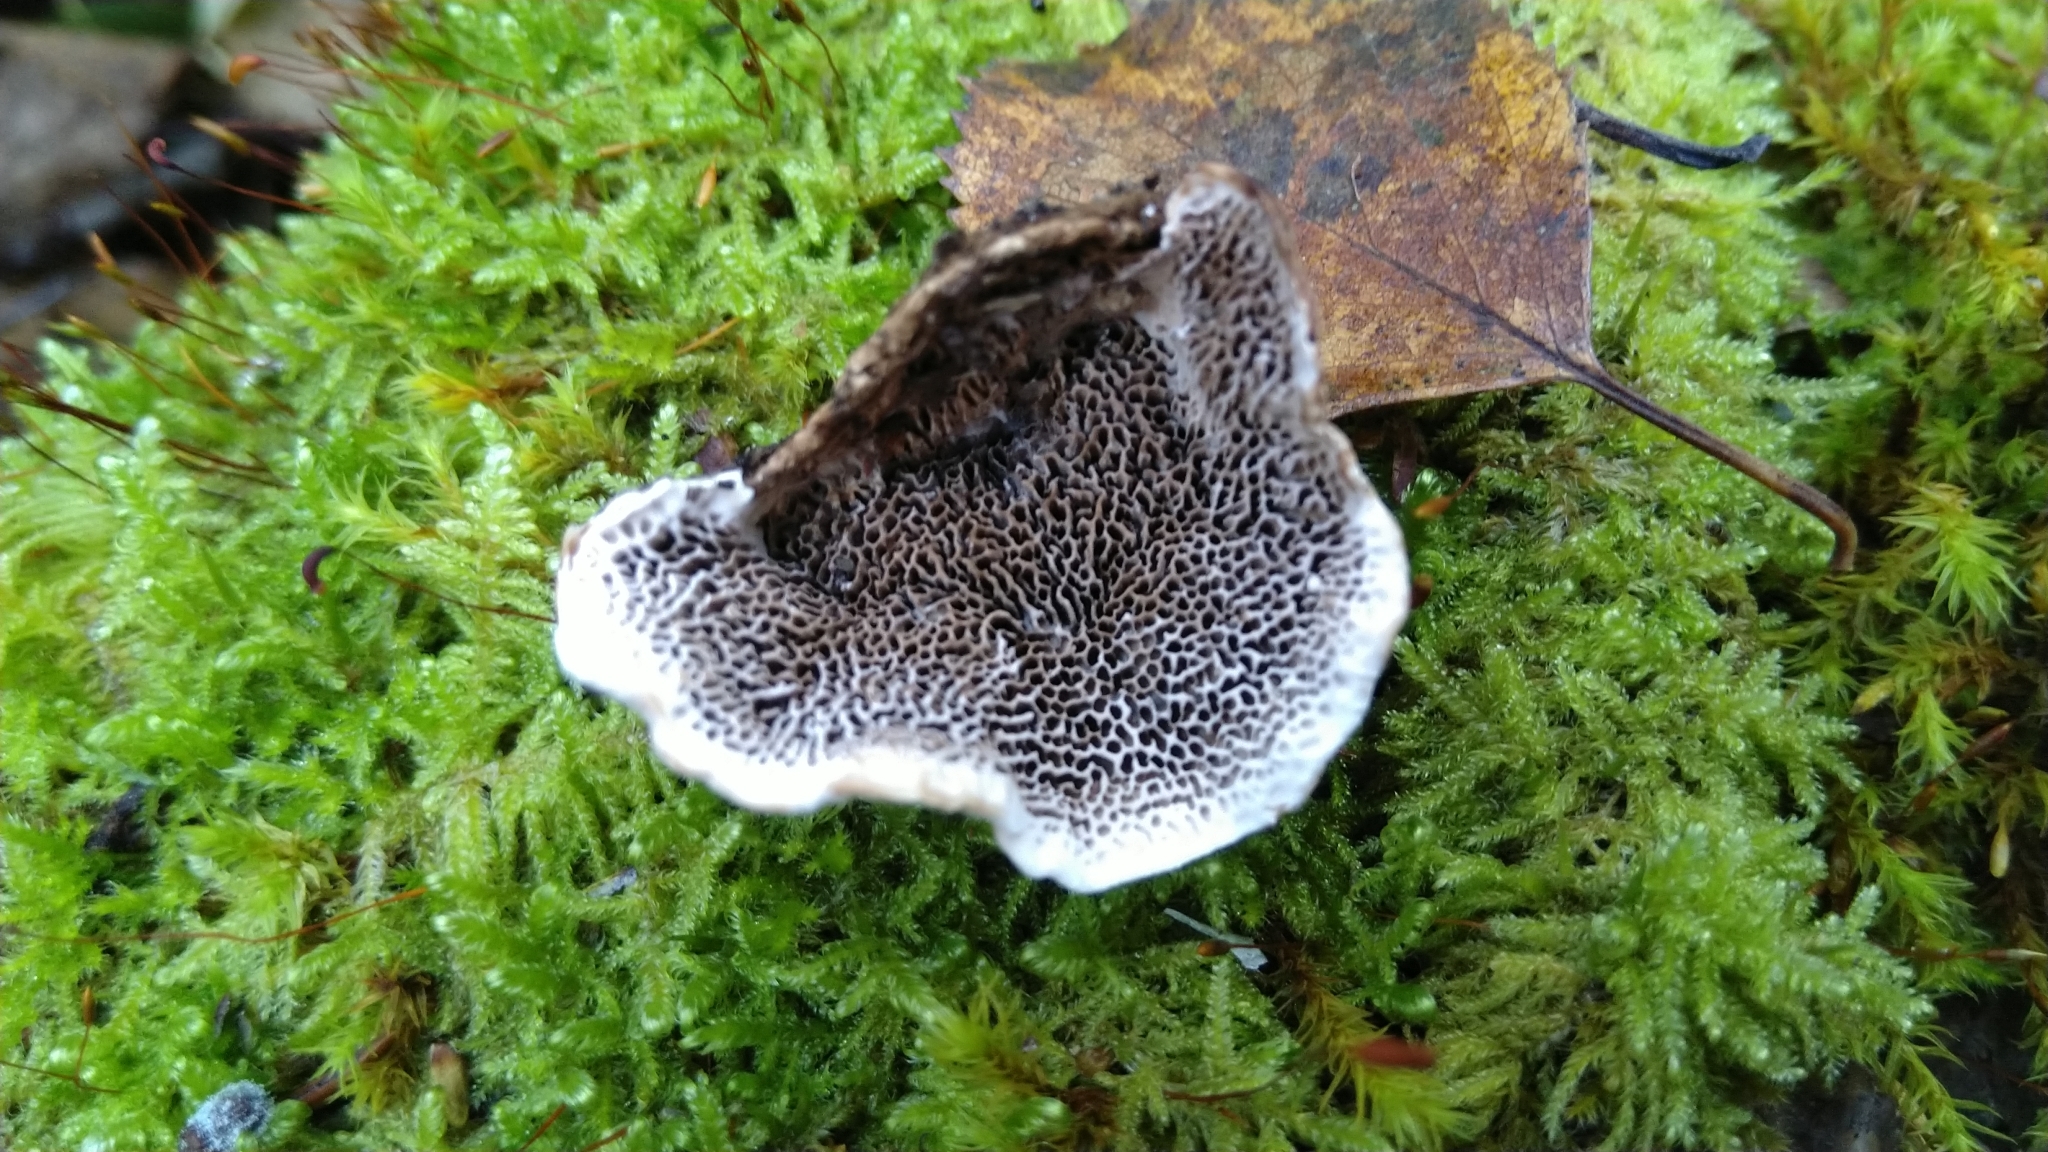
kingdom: Fungi
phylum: Basidiomycota
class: Agaricomycetes
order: Polyporales
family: Polyporaceae
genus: Podofomes
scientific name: Podofomes mollis
